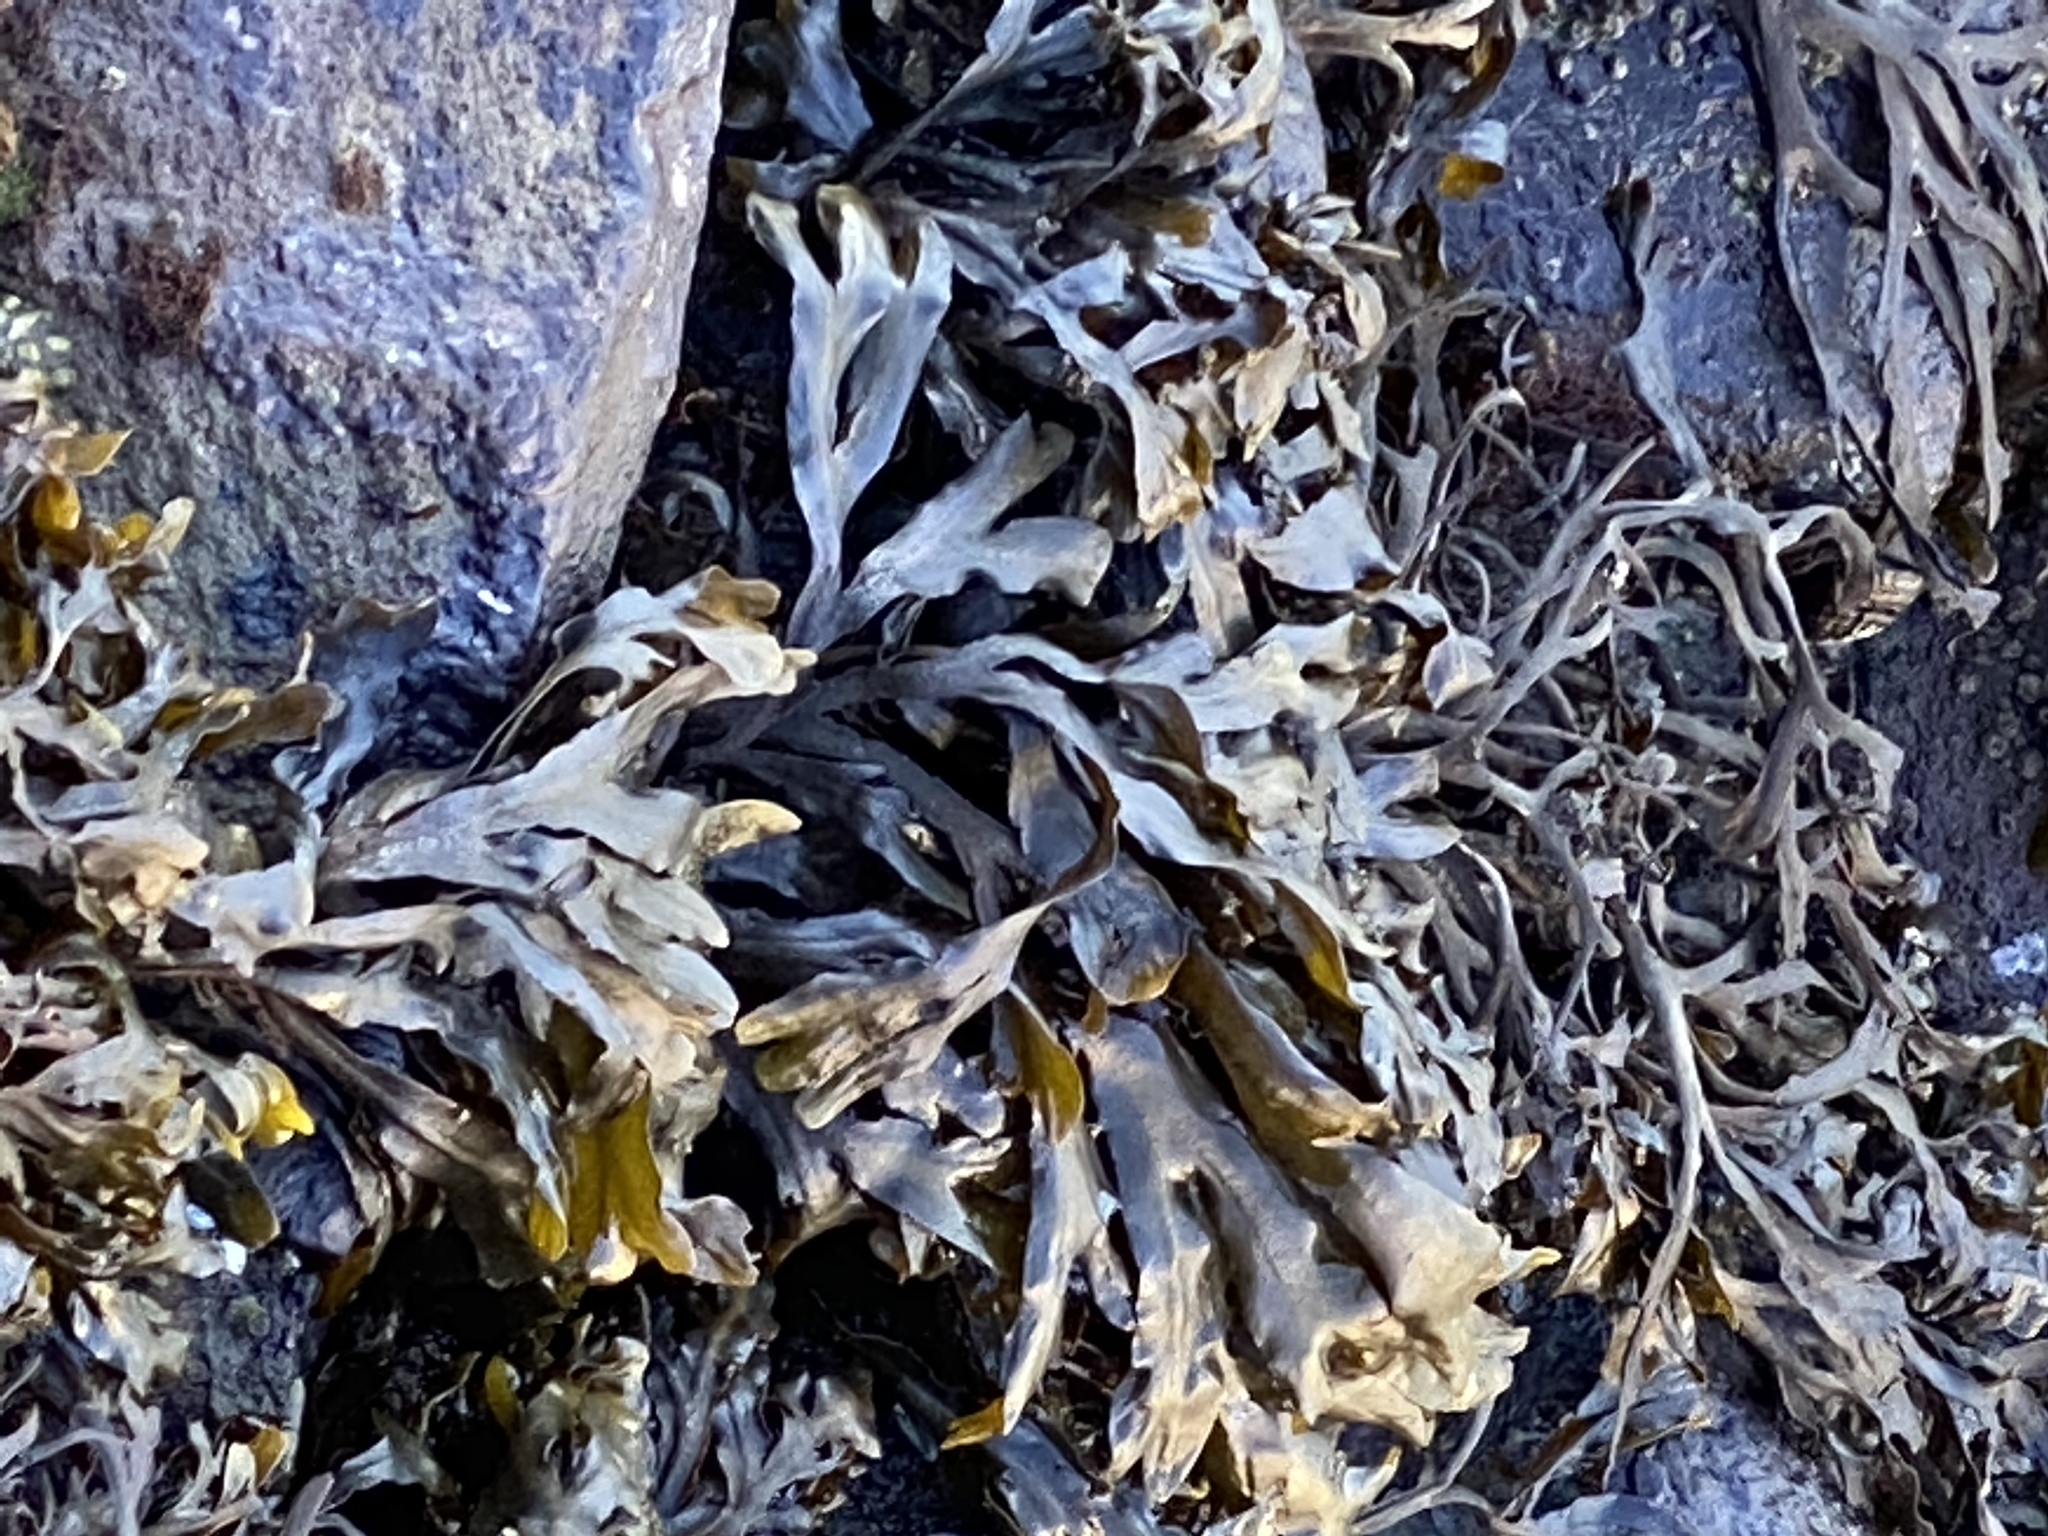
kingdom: Chromista
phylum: Ochrophyta
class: Phaeophyceae
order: Fucales
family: Fucaceae
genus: Fucus
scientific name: Fucus distichus
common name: Rockweed
